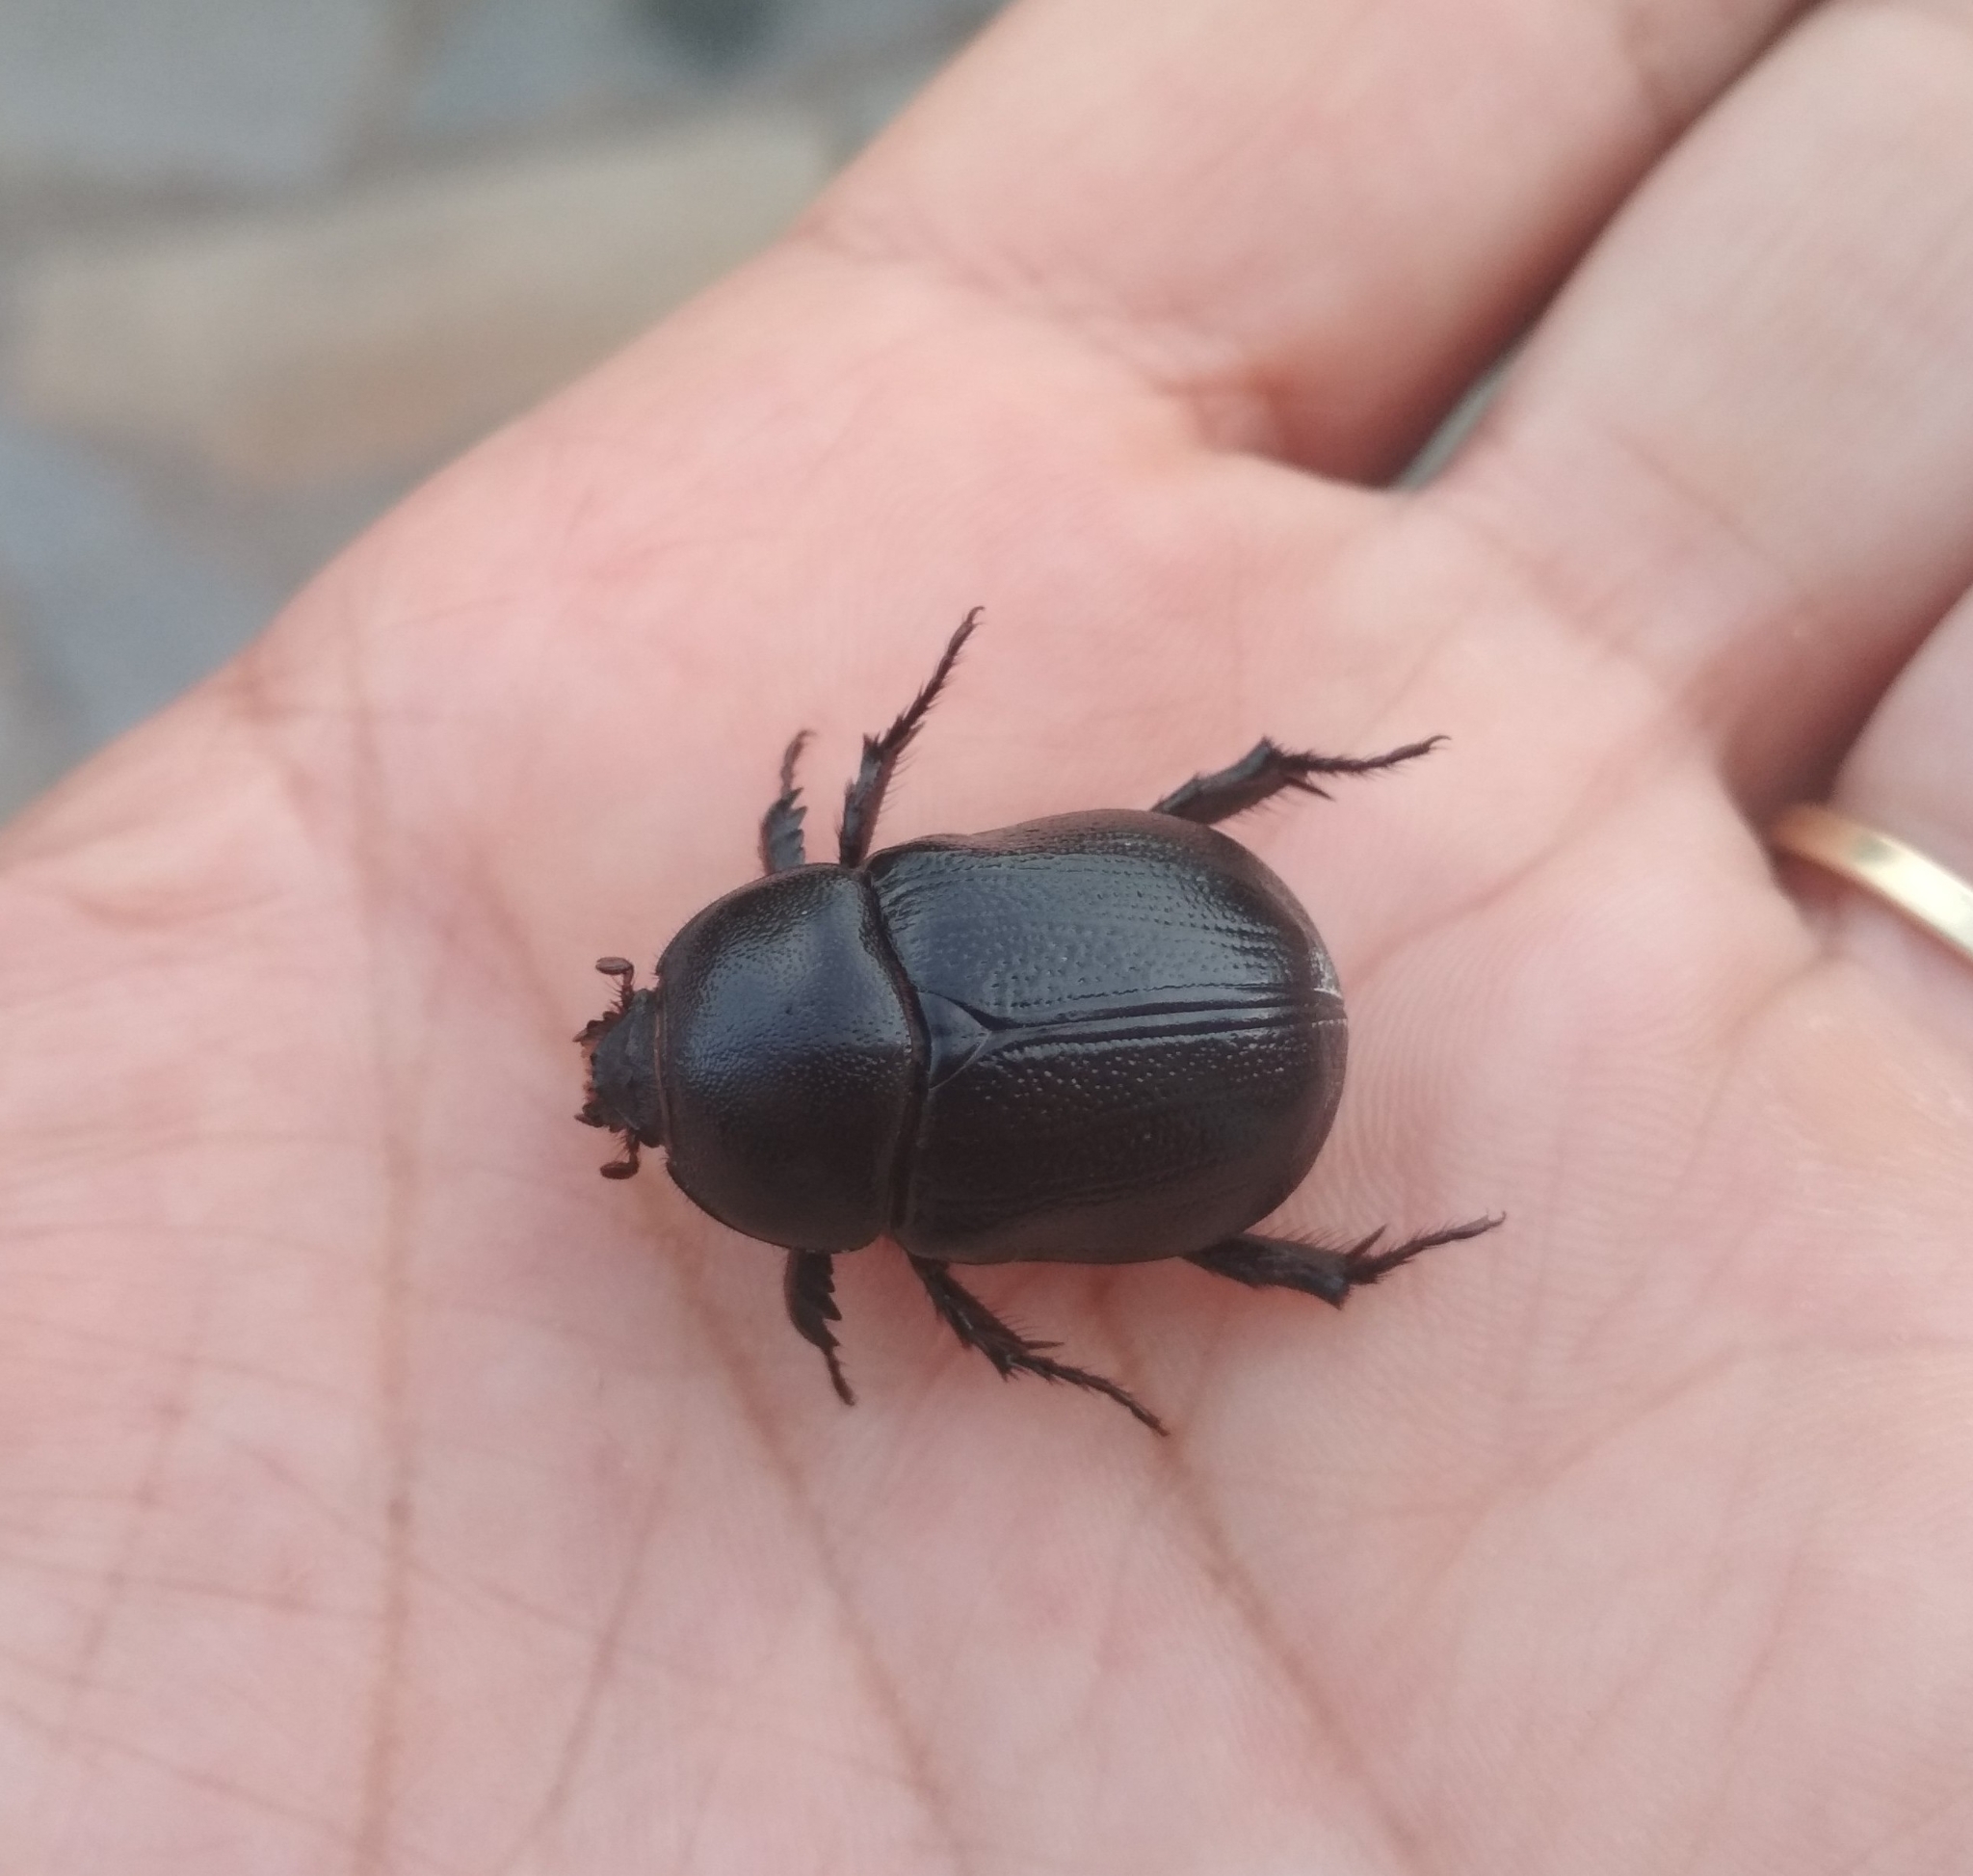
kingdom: Animalia
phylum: Arthropoda
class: Insecta
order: Coleoptera
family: Scarabaeidae
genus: Pentodon
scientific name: Pentodon bidens
